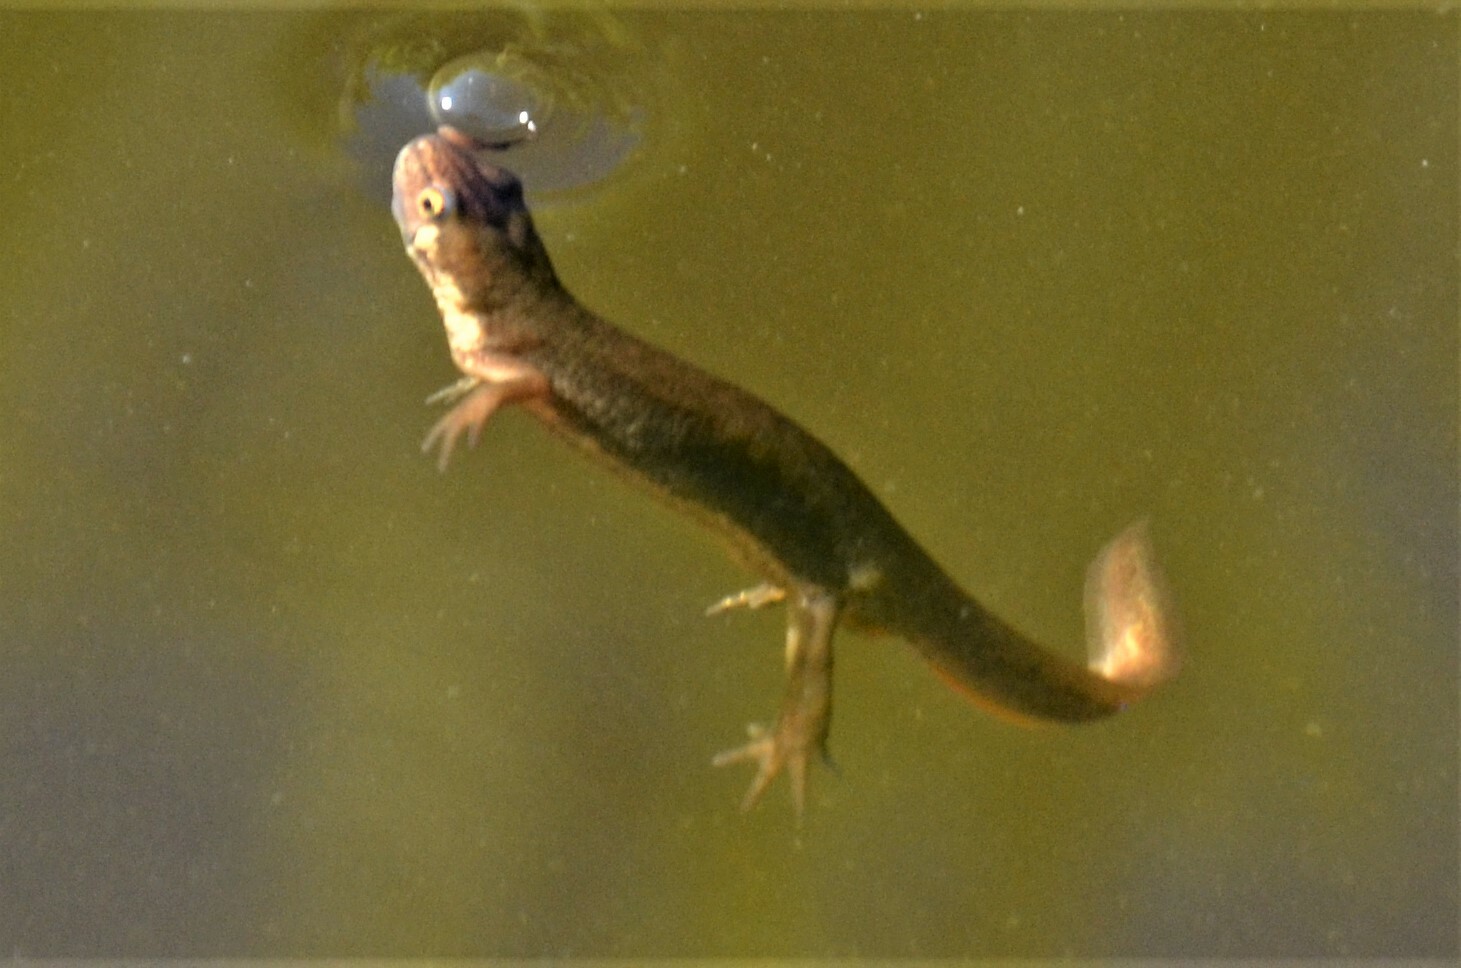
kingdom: Animalia
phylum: Chordata
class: Amphibia
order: Caudata
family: Salamandridae
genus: Lissotriton
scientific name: Lissotriton vulgaris
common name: Smooth newt
